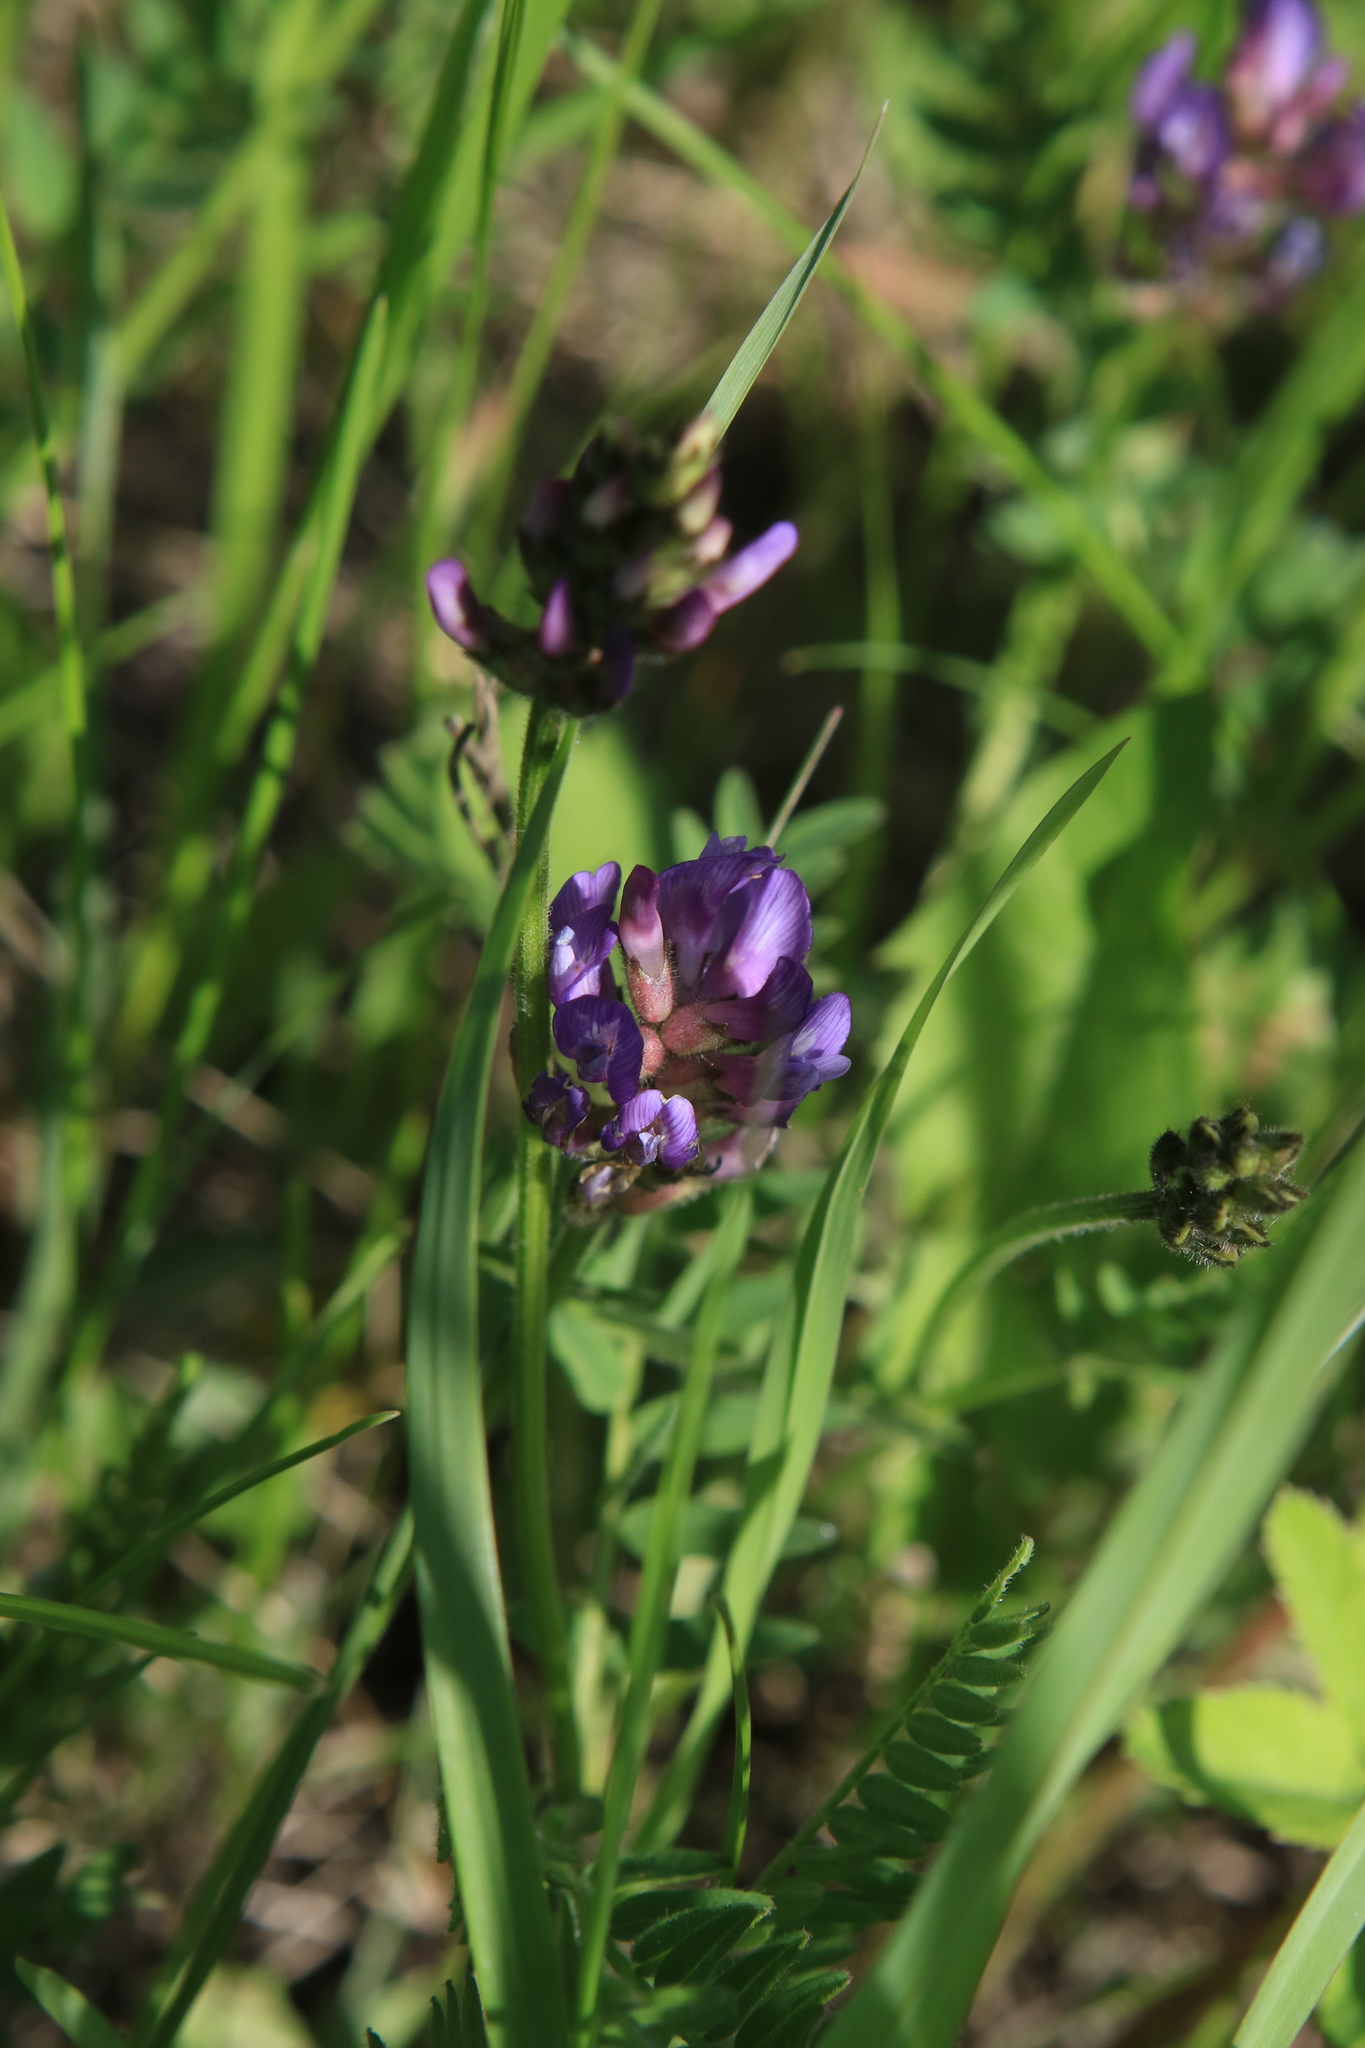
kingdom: Plantae
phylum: Tracheophyta
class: Magnoliopsida
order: Fabales
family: Fabaceae
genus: Astragalus
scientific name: Astragalus danicus
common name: Purple milk-vetch
